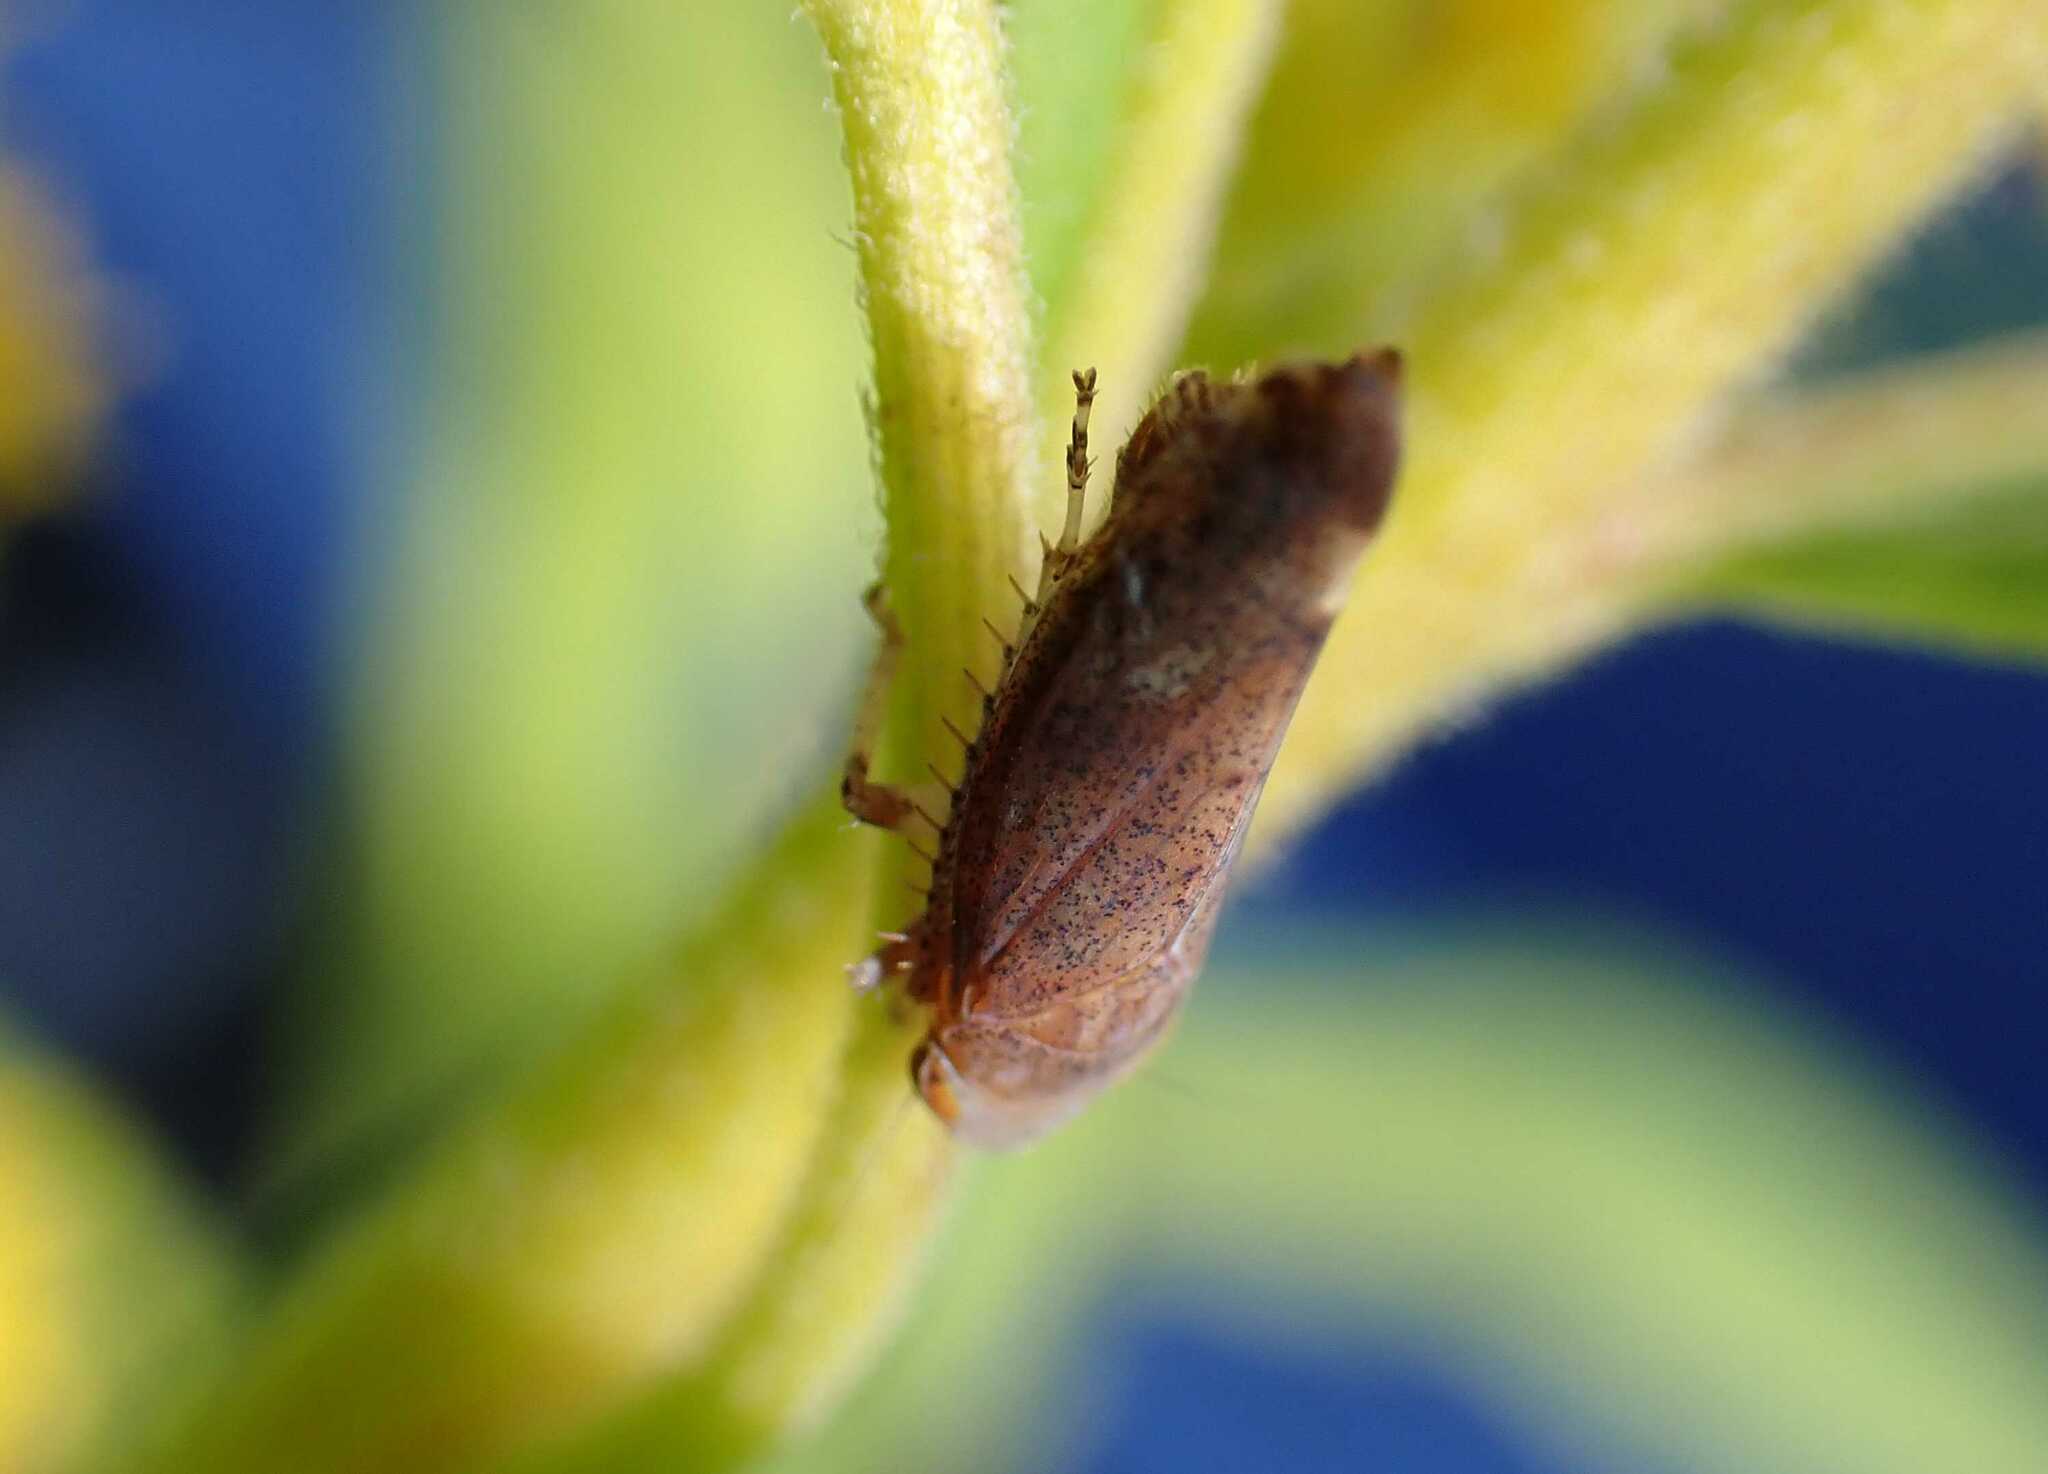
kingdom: Animalia
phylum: Arthropoda
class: Insecta
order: Hemiptera
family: Cicadellidae
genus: Fieberiella
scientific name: Fieberiella
